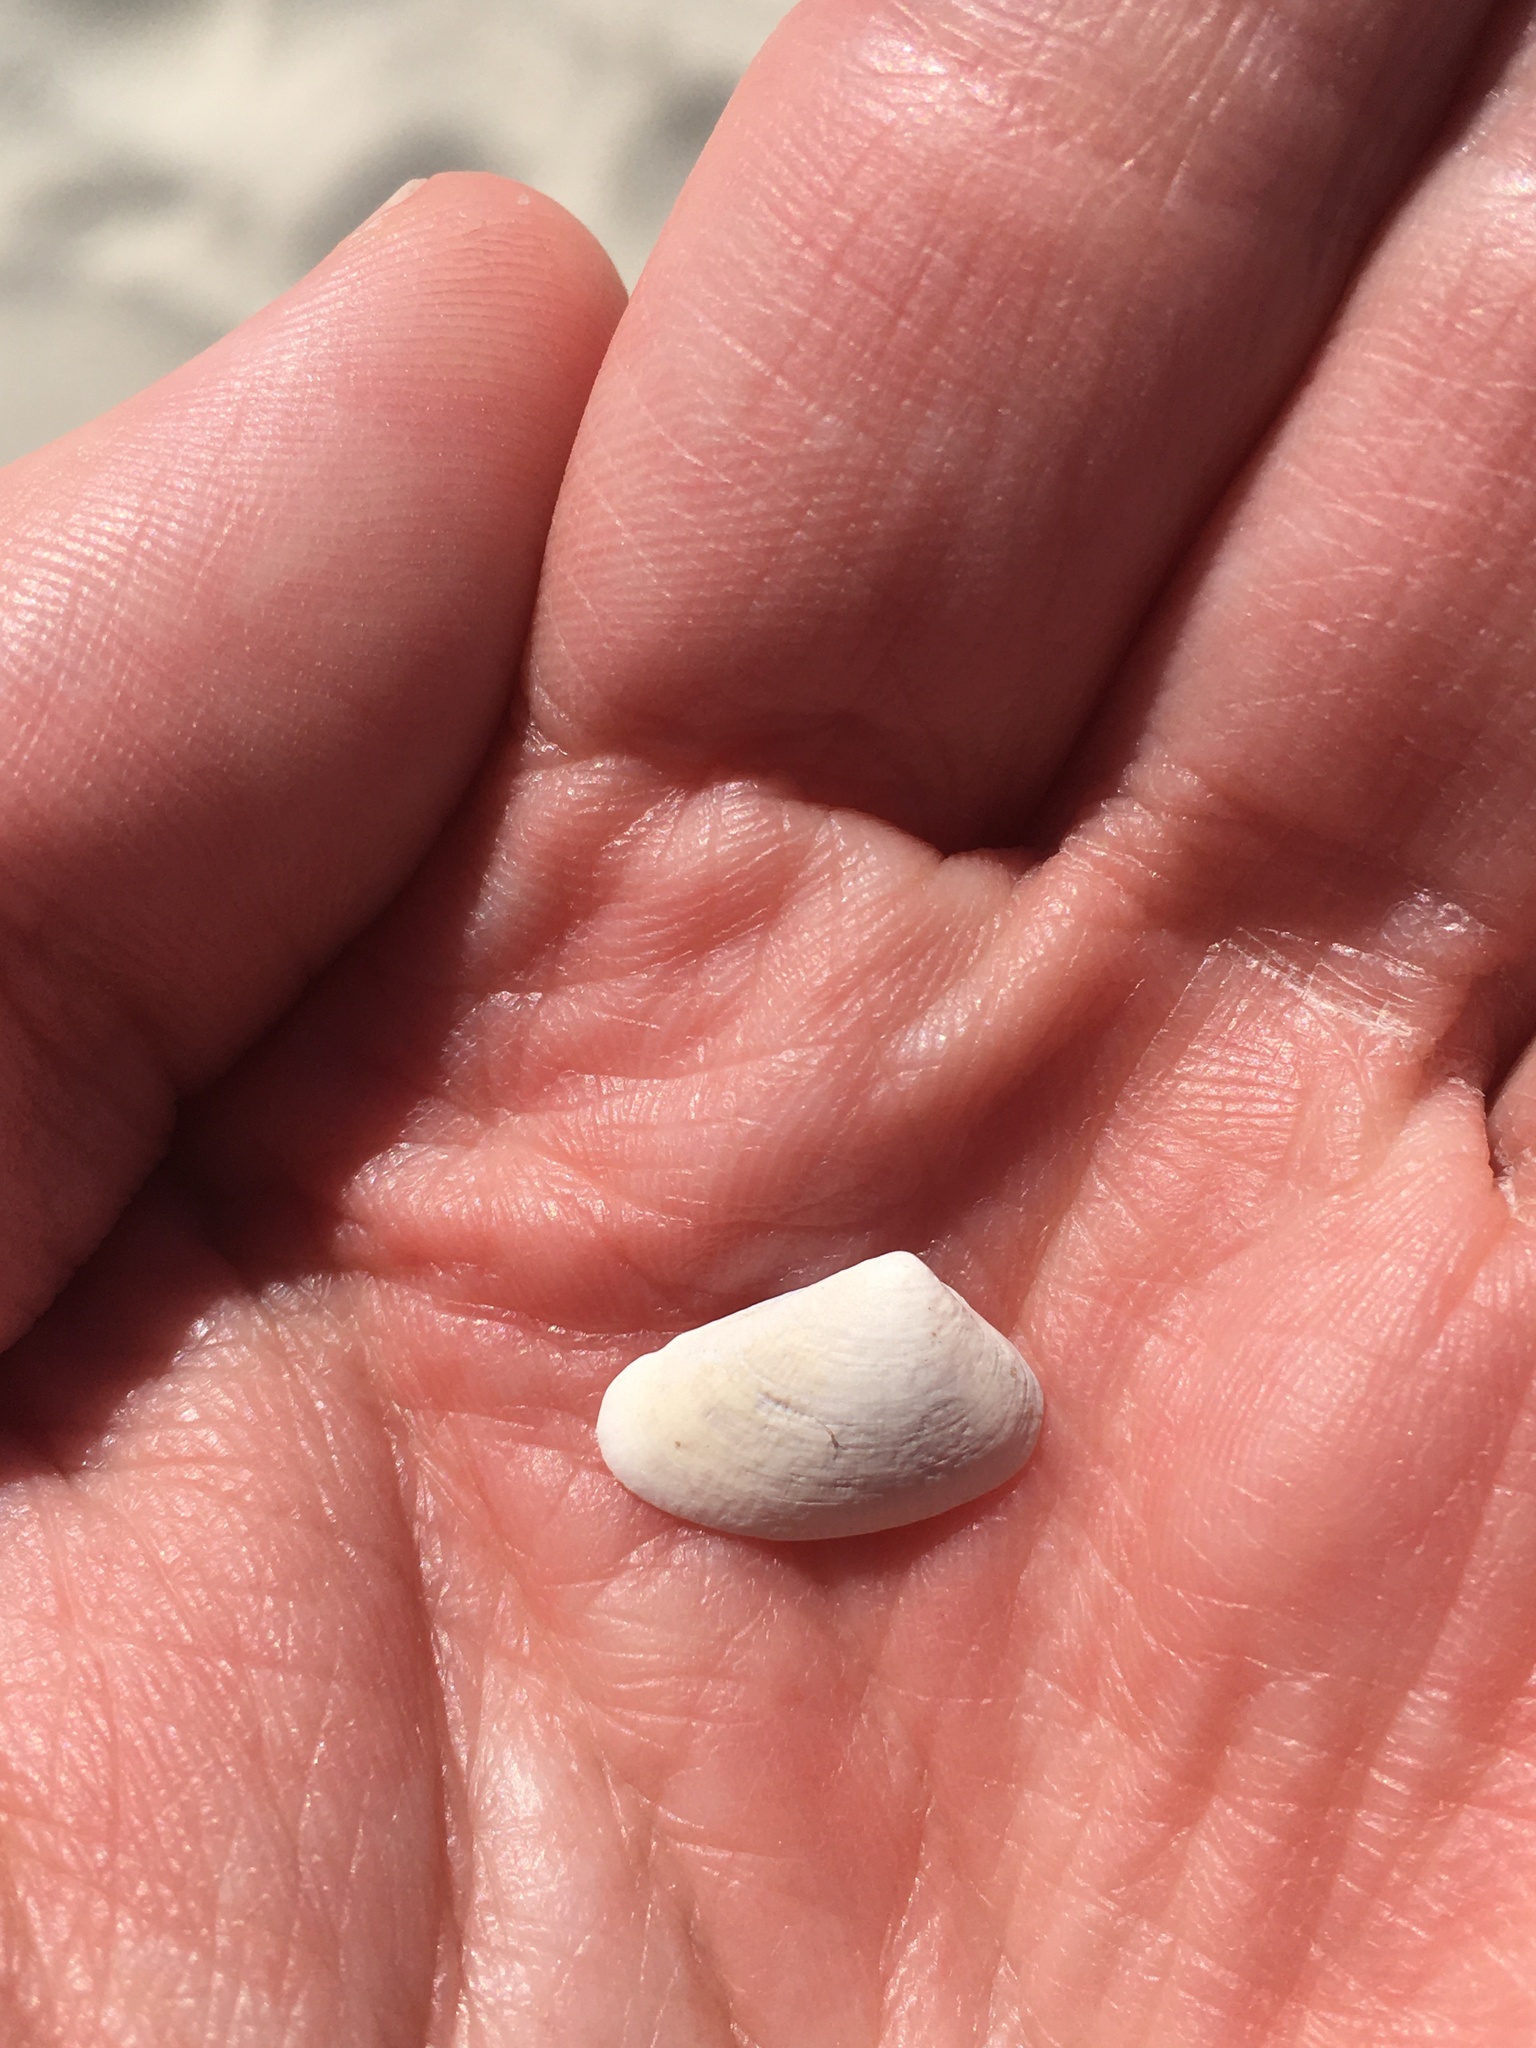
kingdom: Animalia
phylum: Mollusca
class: Bivalvia
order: Cardiida
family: Donacidae
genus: Donax
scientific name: Donax variabilis
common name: Butterfly shell
